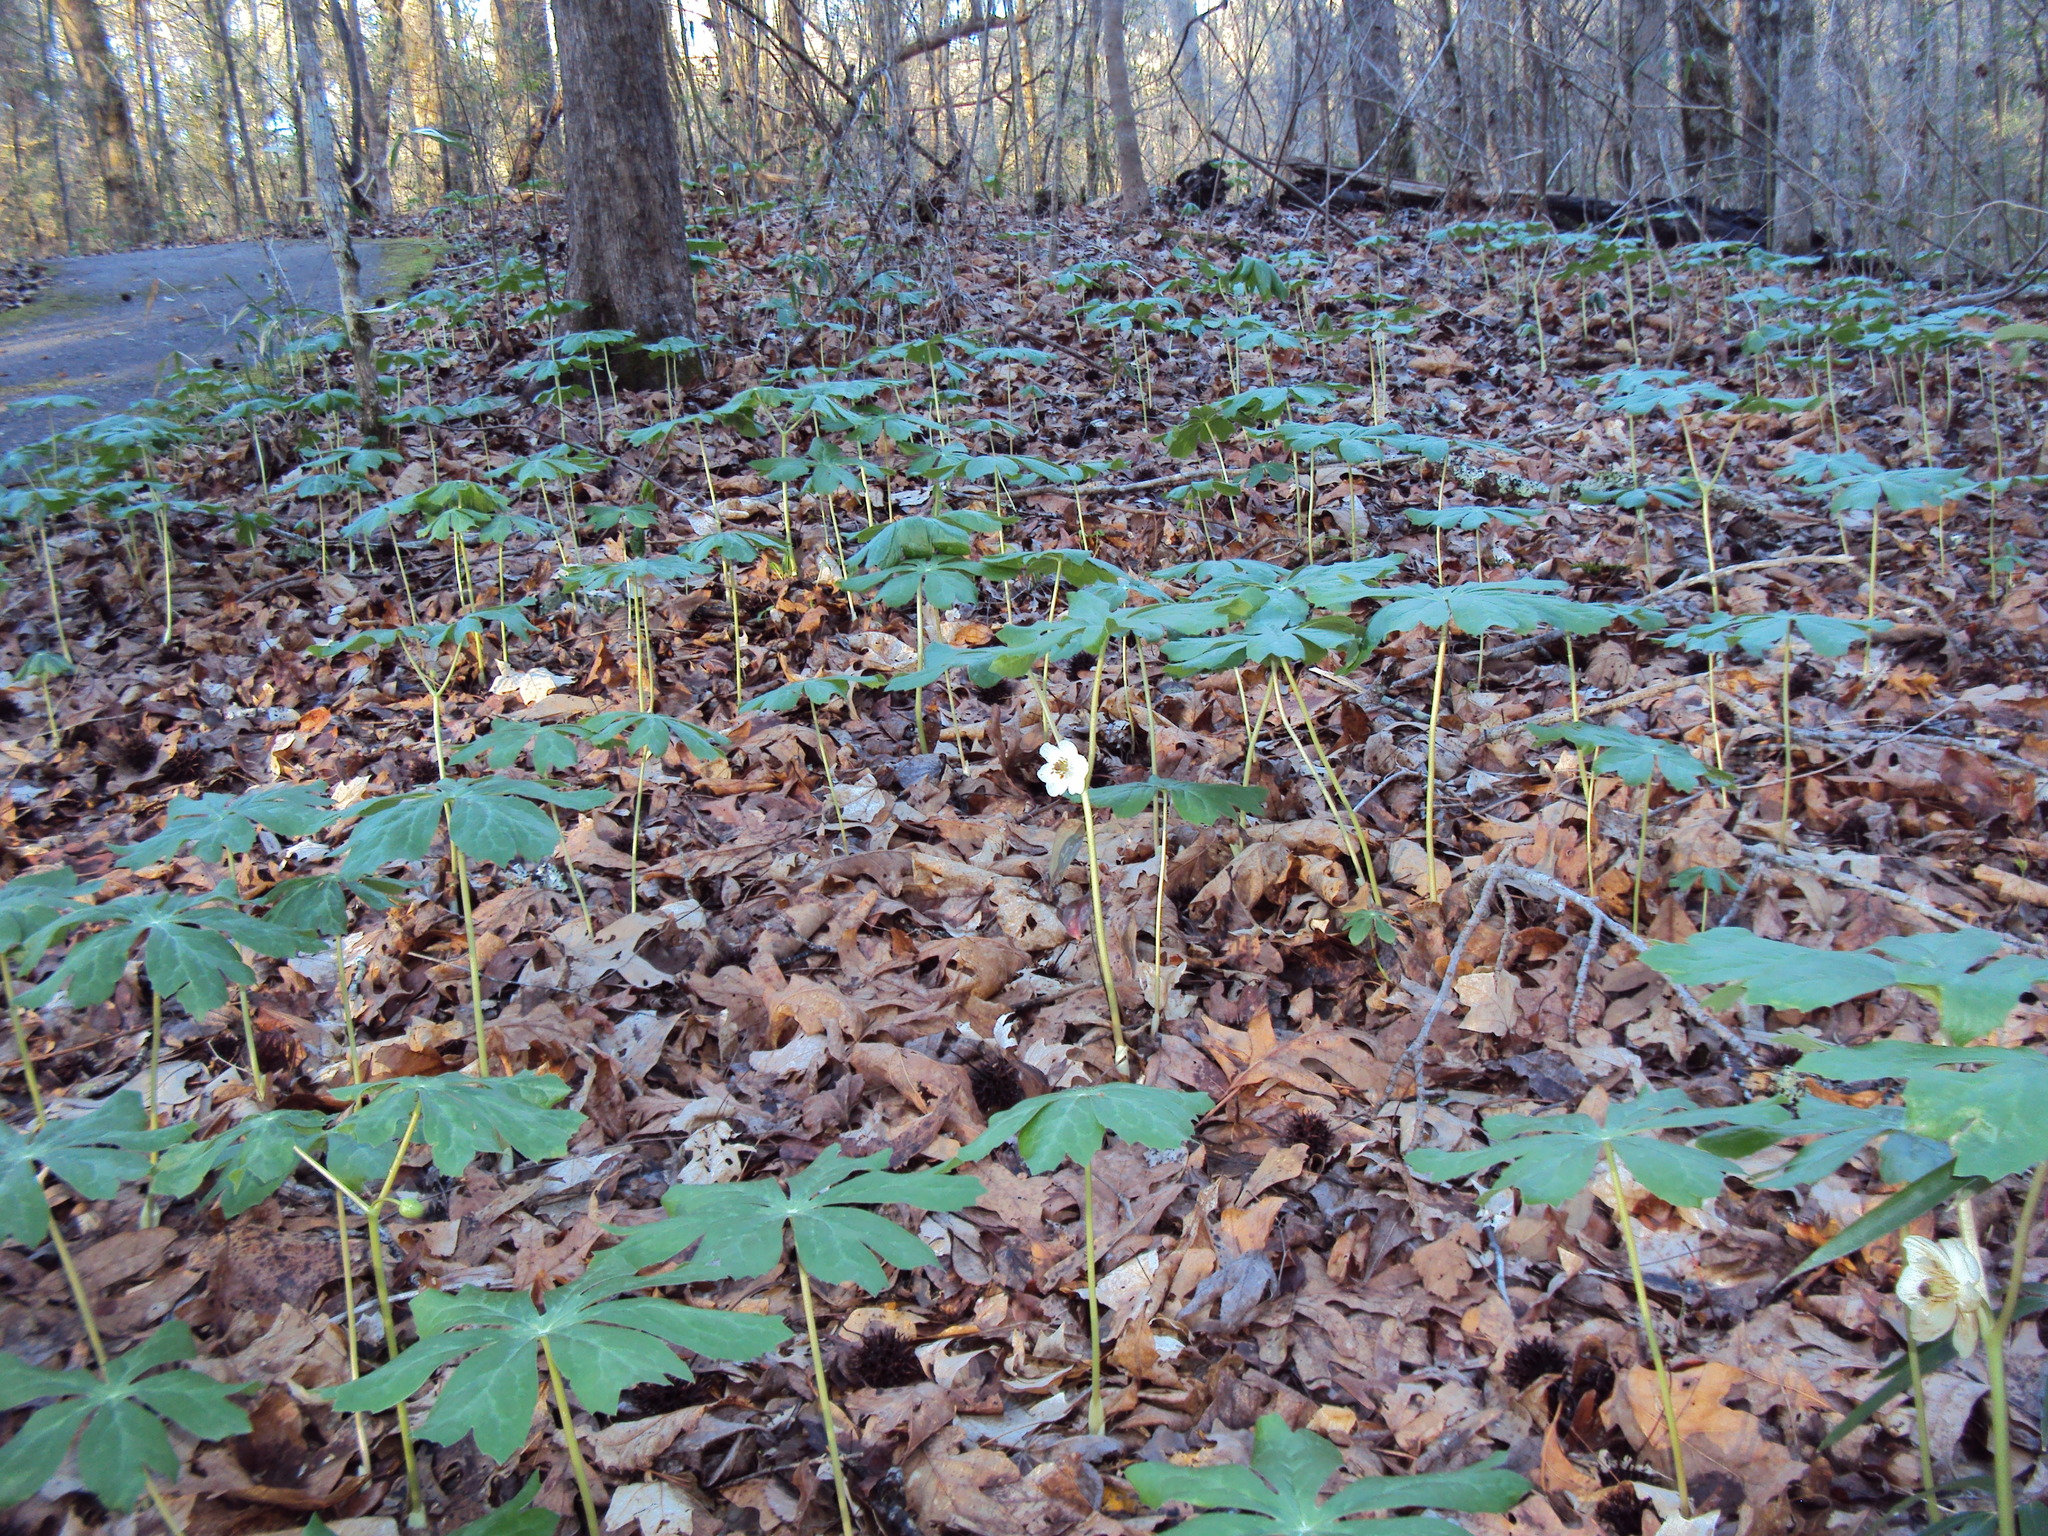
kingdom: Plantae
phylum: Tracheophyta
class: Magnoliopsida
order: Ranunculales
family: Berberidaceae
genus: Podophyllum
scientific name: Podophyllum peltatum
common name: Wild mandrake
